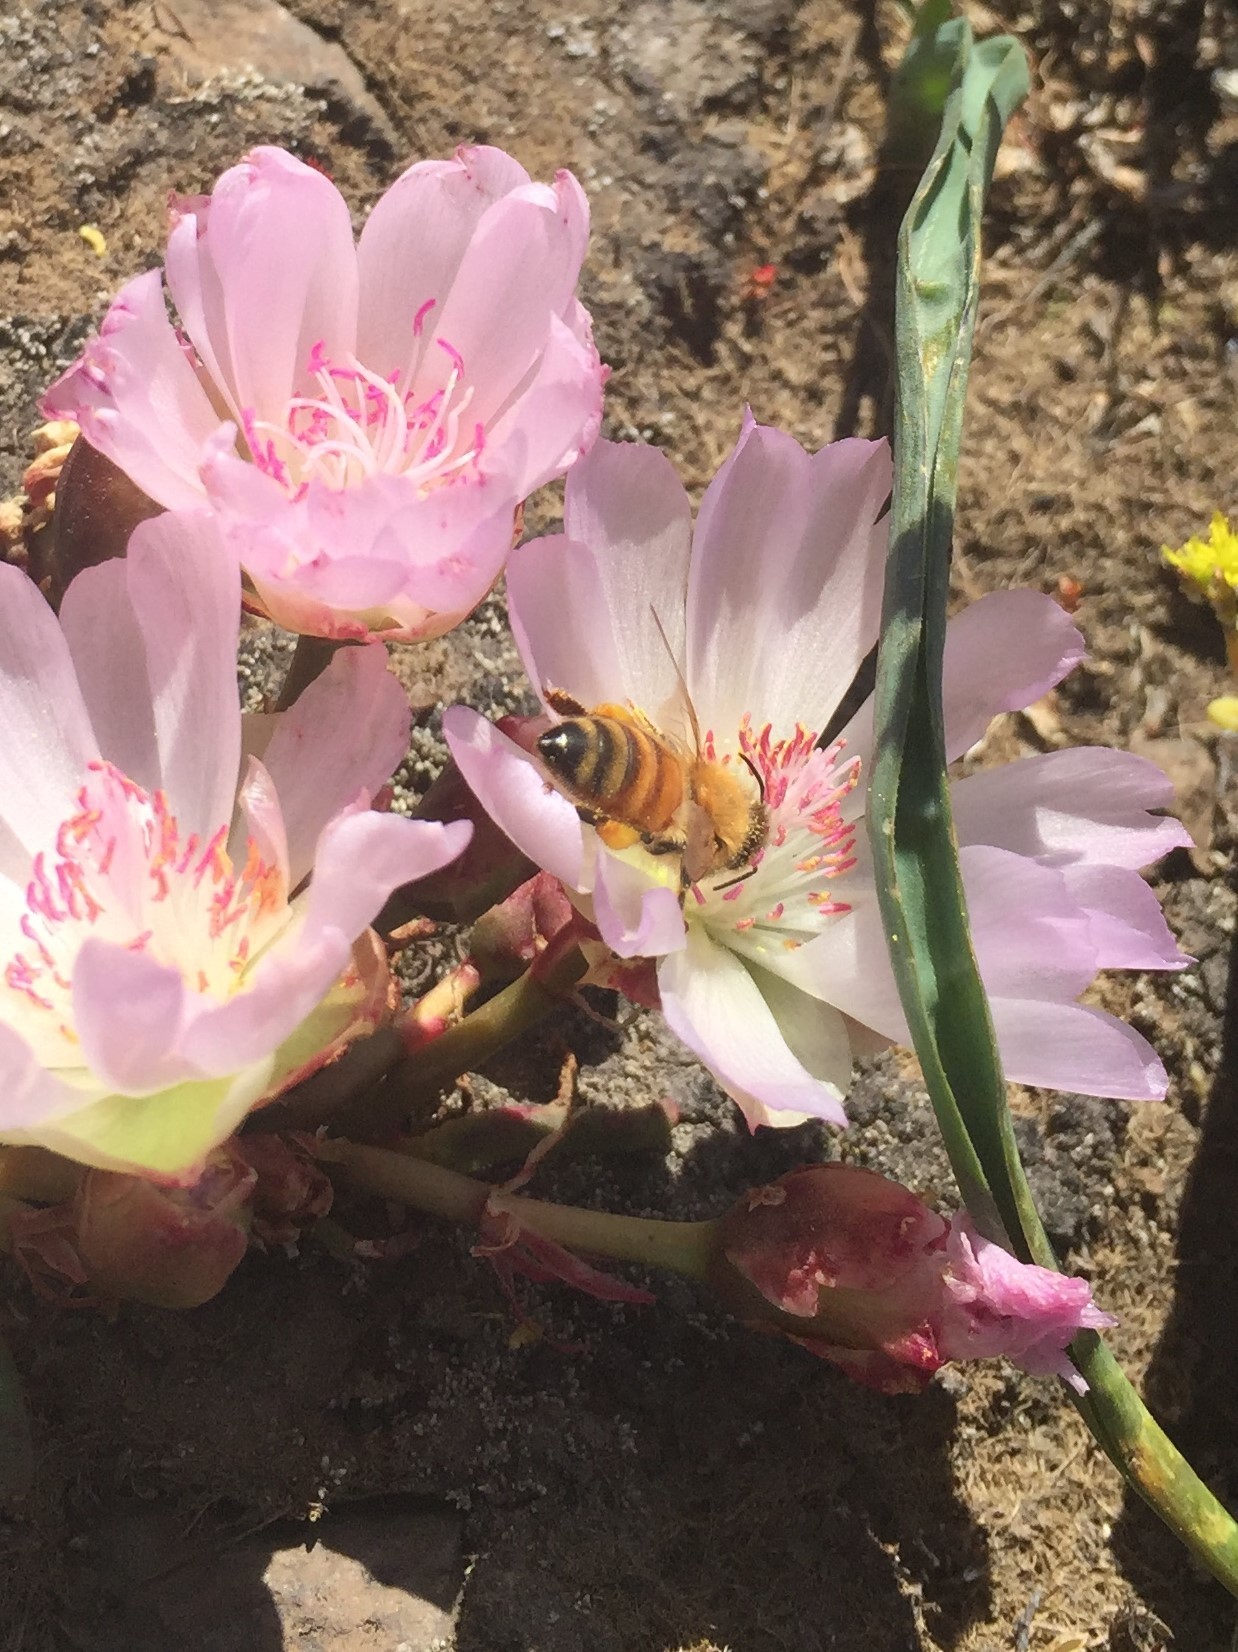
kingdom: Animalia
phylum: Arthropoda
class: Insecta
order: Hymenoptera
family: Apidae
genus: Apis
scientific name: Apis mellifera
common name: Honey bee
